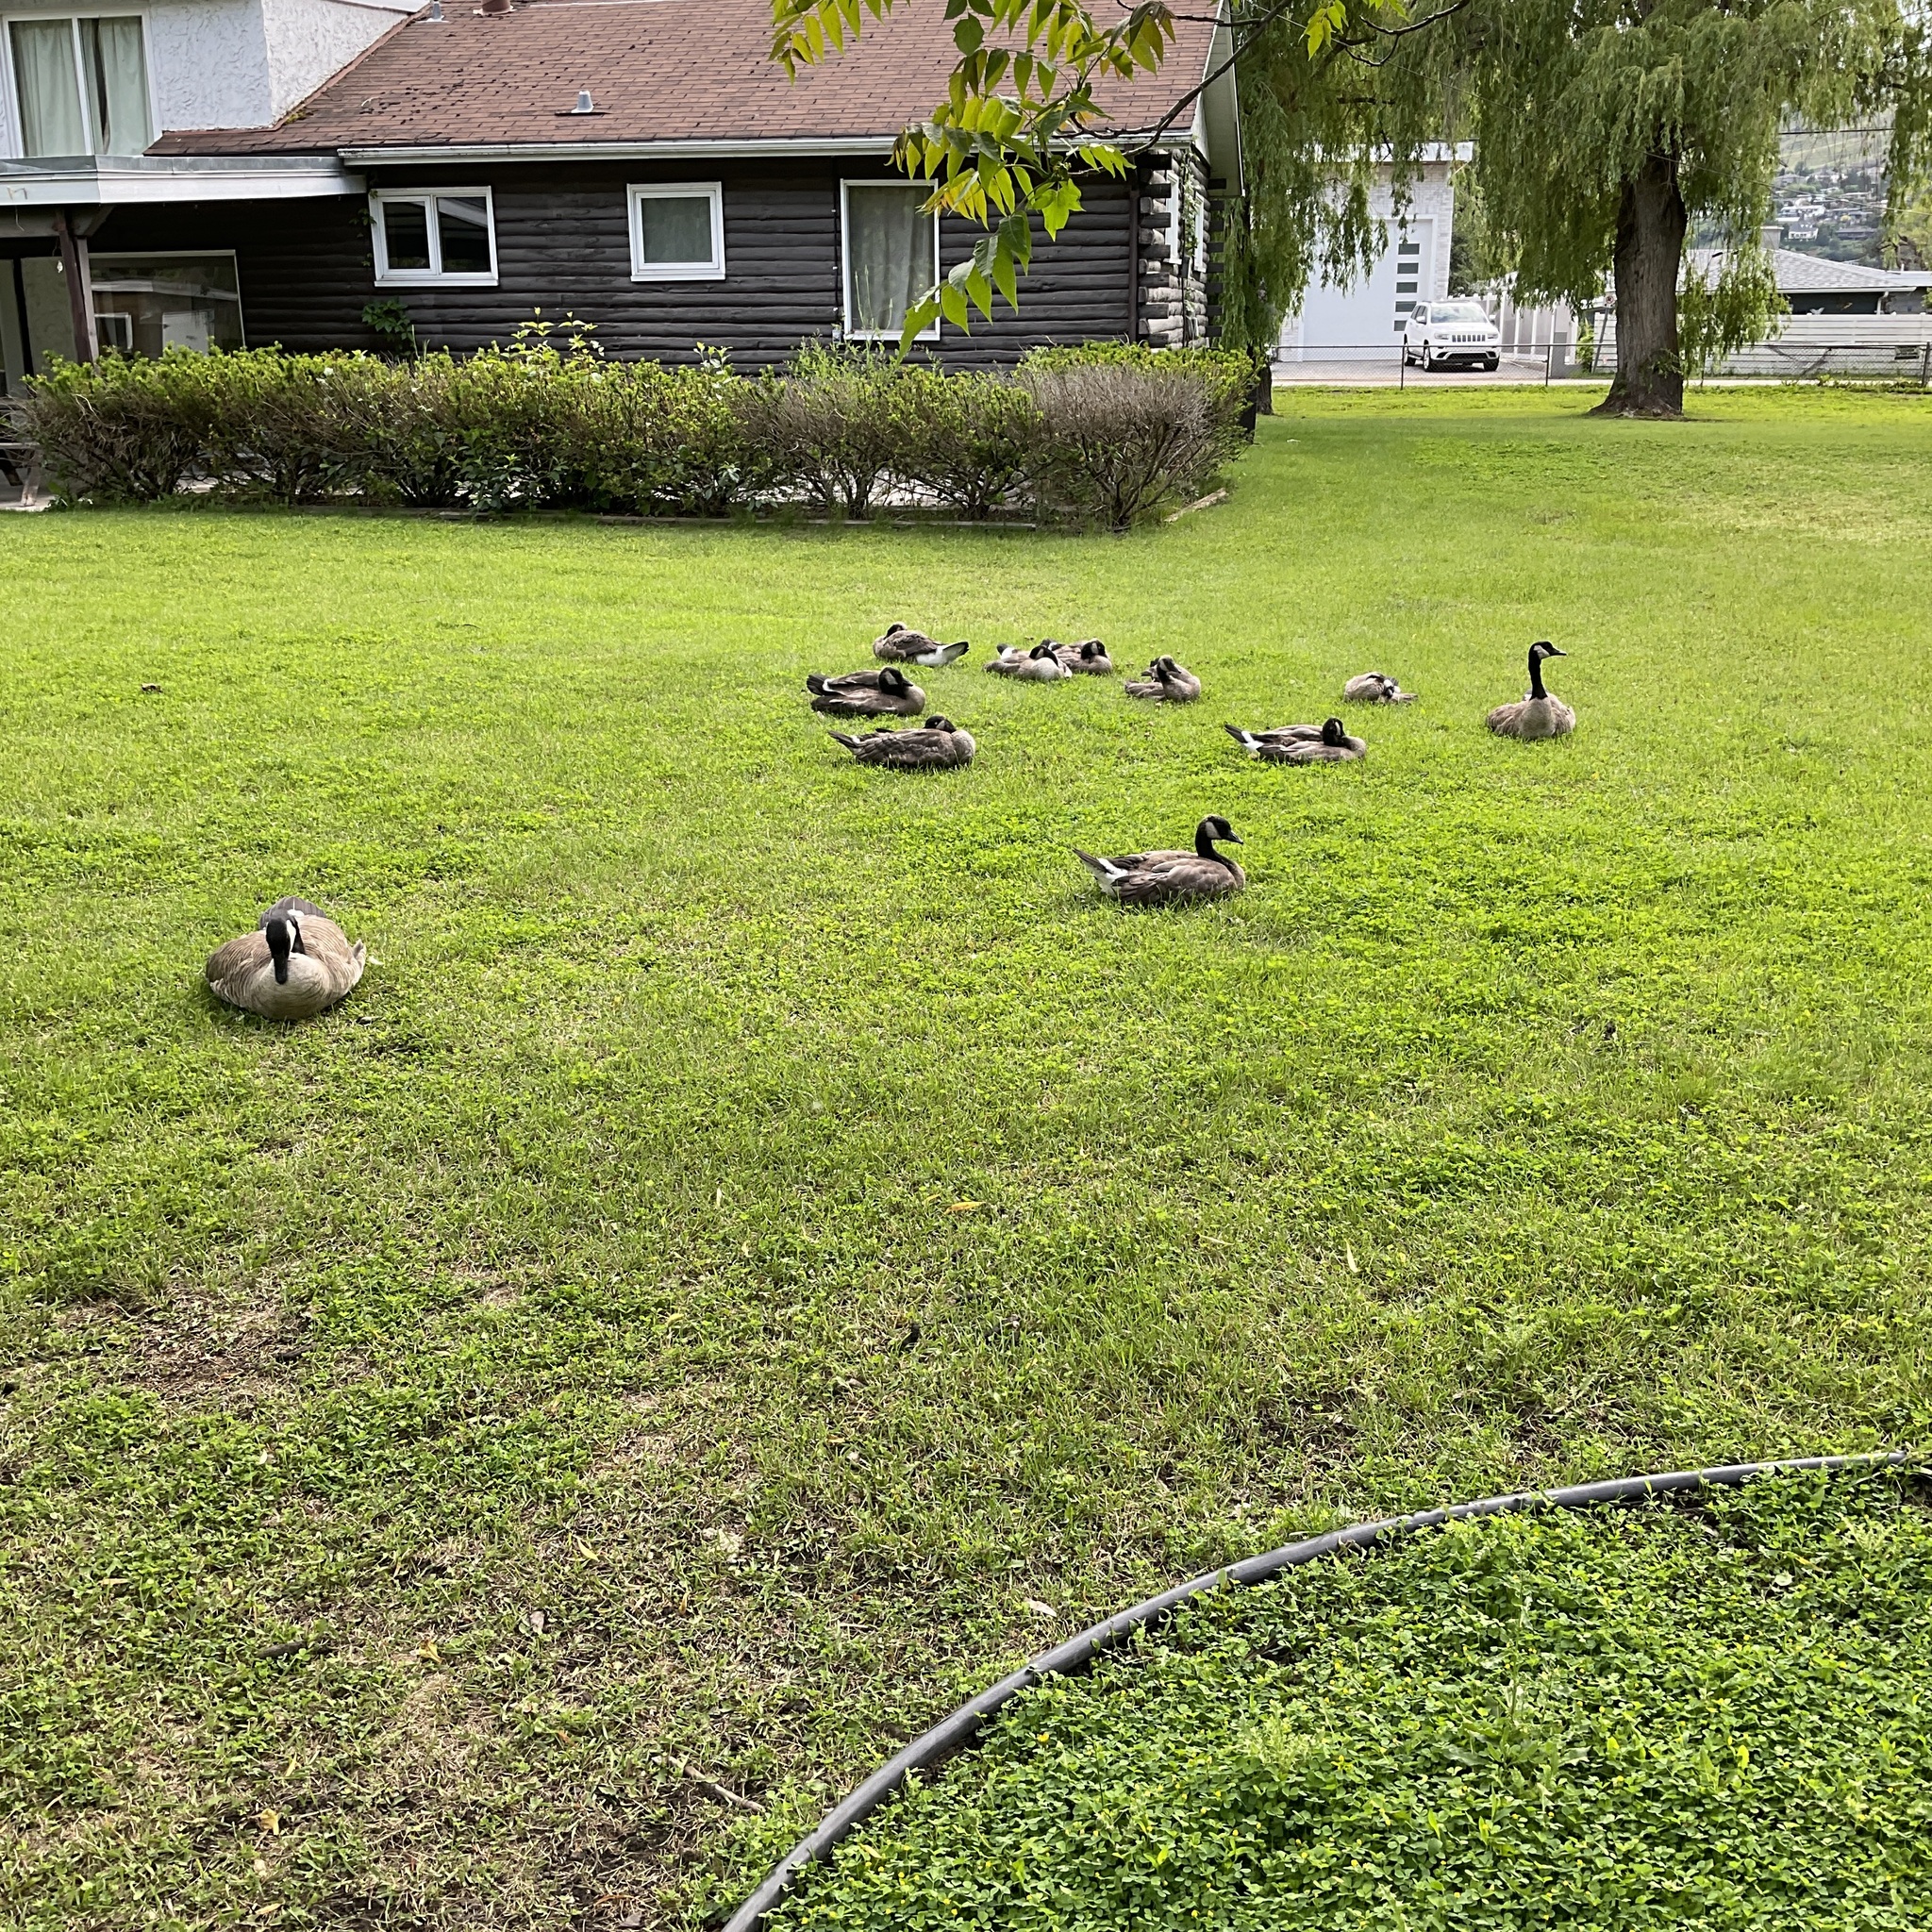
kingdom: Animalia
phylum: Chordata
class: Aves
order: Anseriformes
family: Anatidae
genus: Branta
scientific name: Branta canadensis
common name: Canada goose
